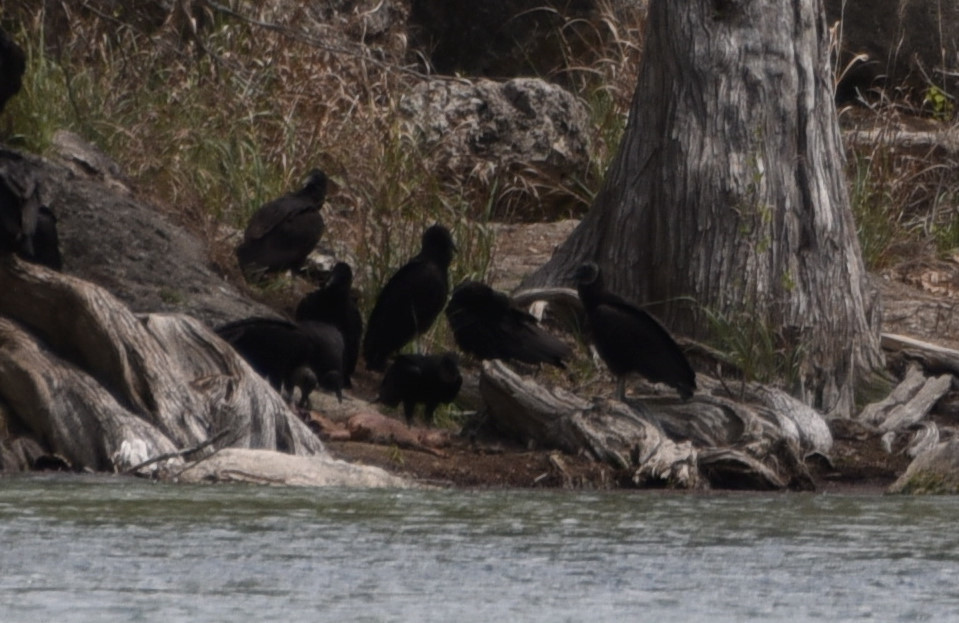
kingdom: Animalia
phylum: Chordata
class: Aves
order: Accipitriformes
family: Cathartidae
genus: Coragyps
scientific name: Coragyps atratus
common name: Black vulture
